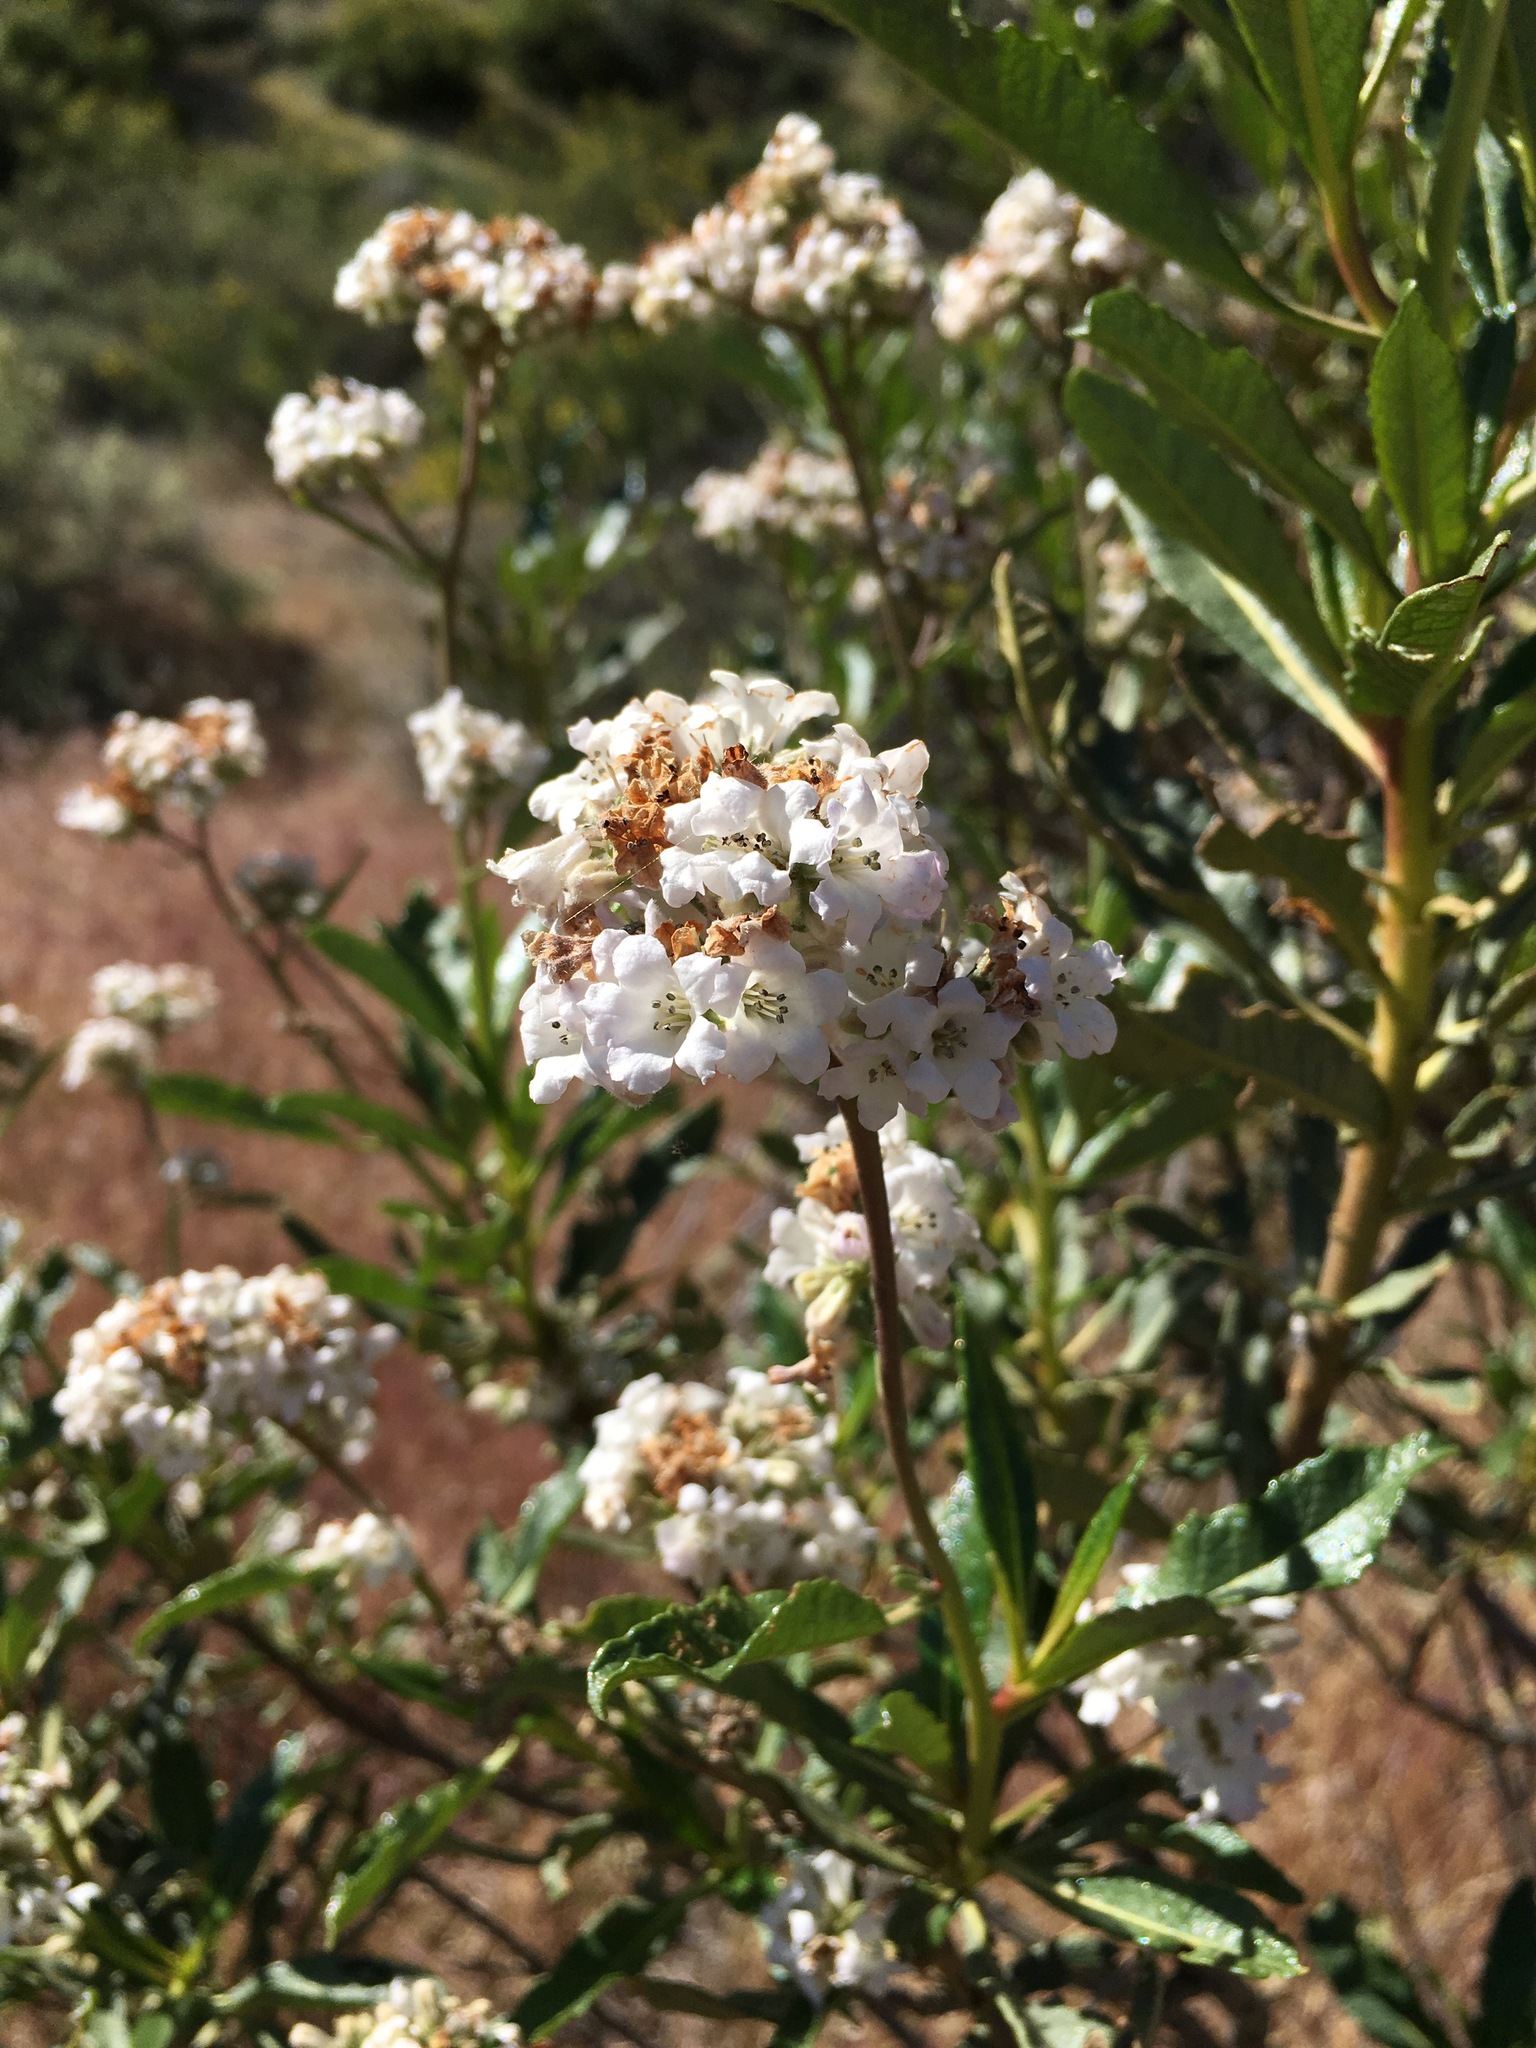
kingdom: Plantae
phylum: Tracheophyta
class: Magnoliopsida
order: Boraginales
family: Namaceae
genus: Eriodictyon
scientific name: Eriodictyon trichocalyx
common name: Hairy yerba-santa
